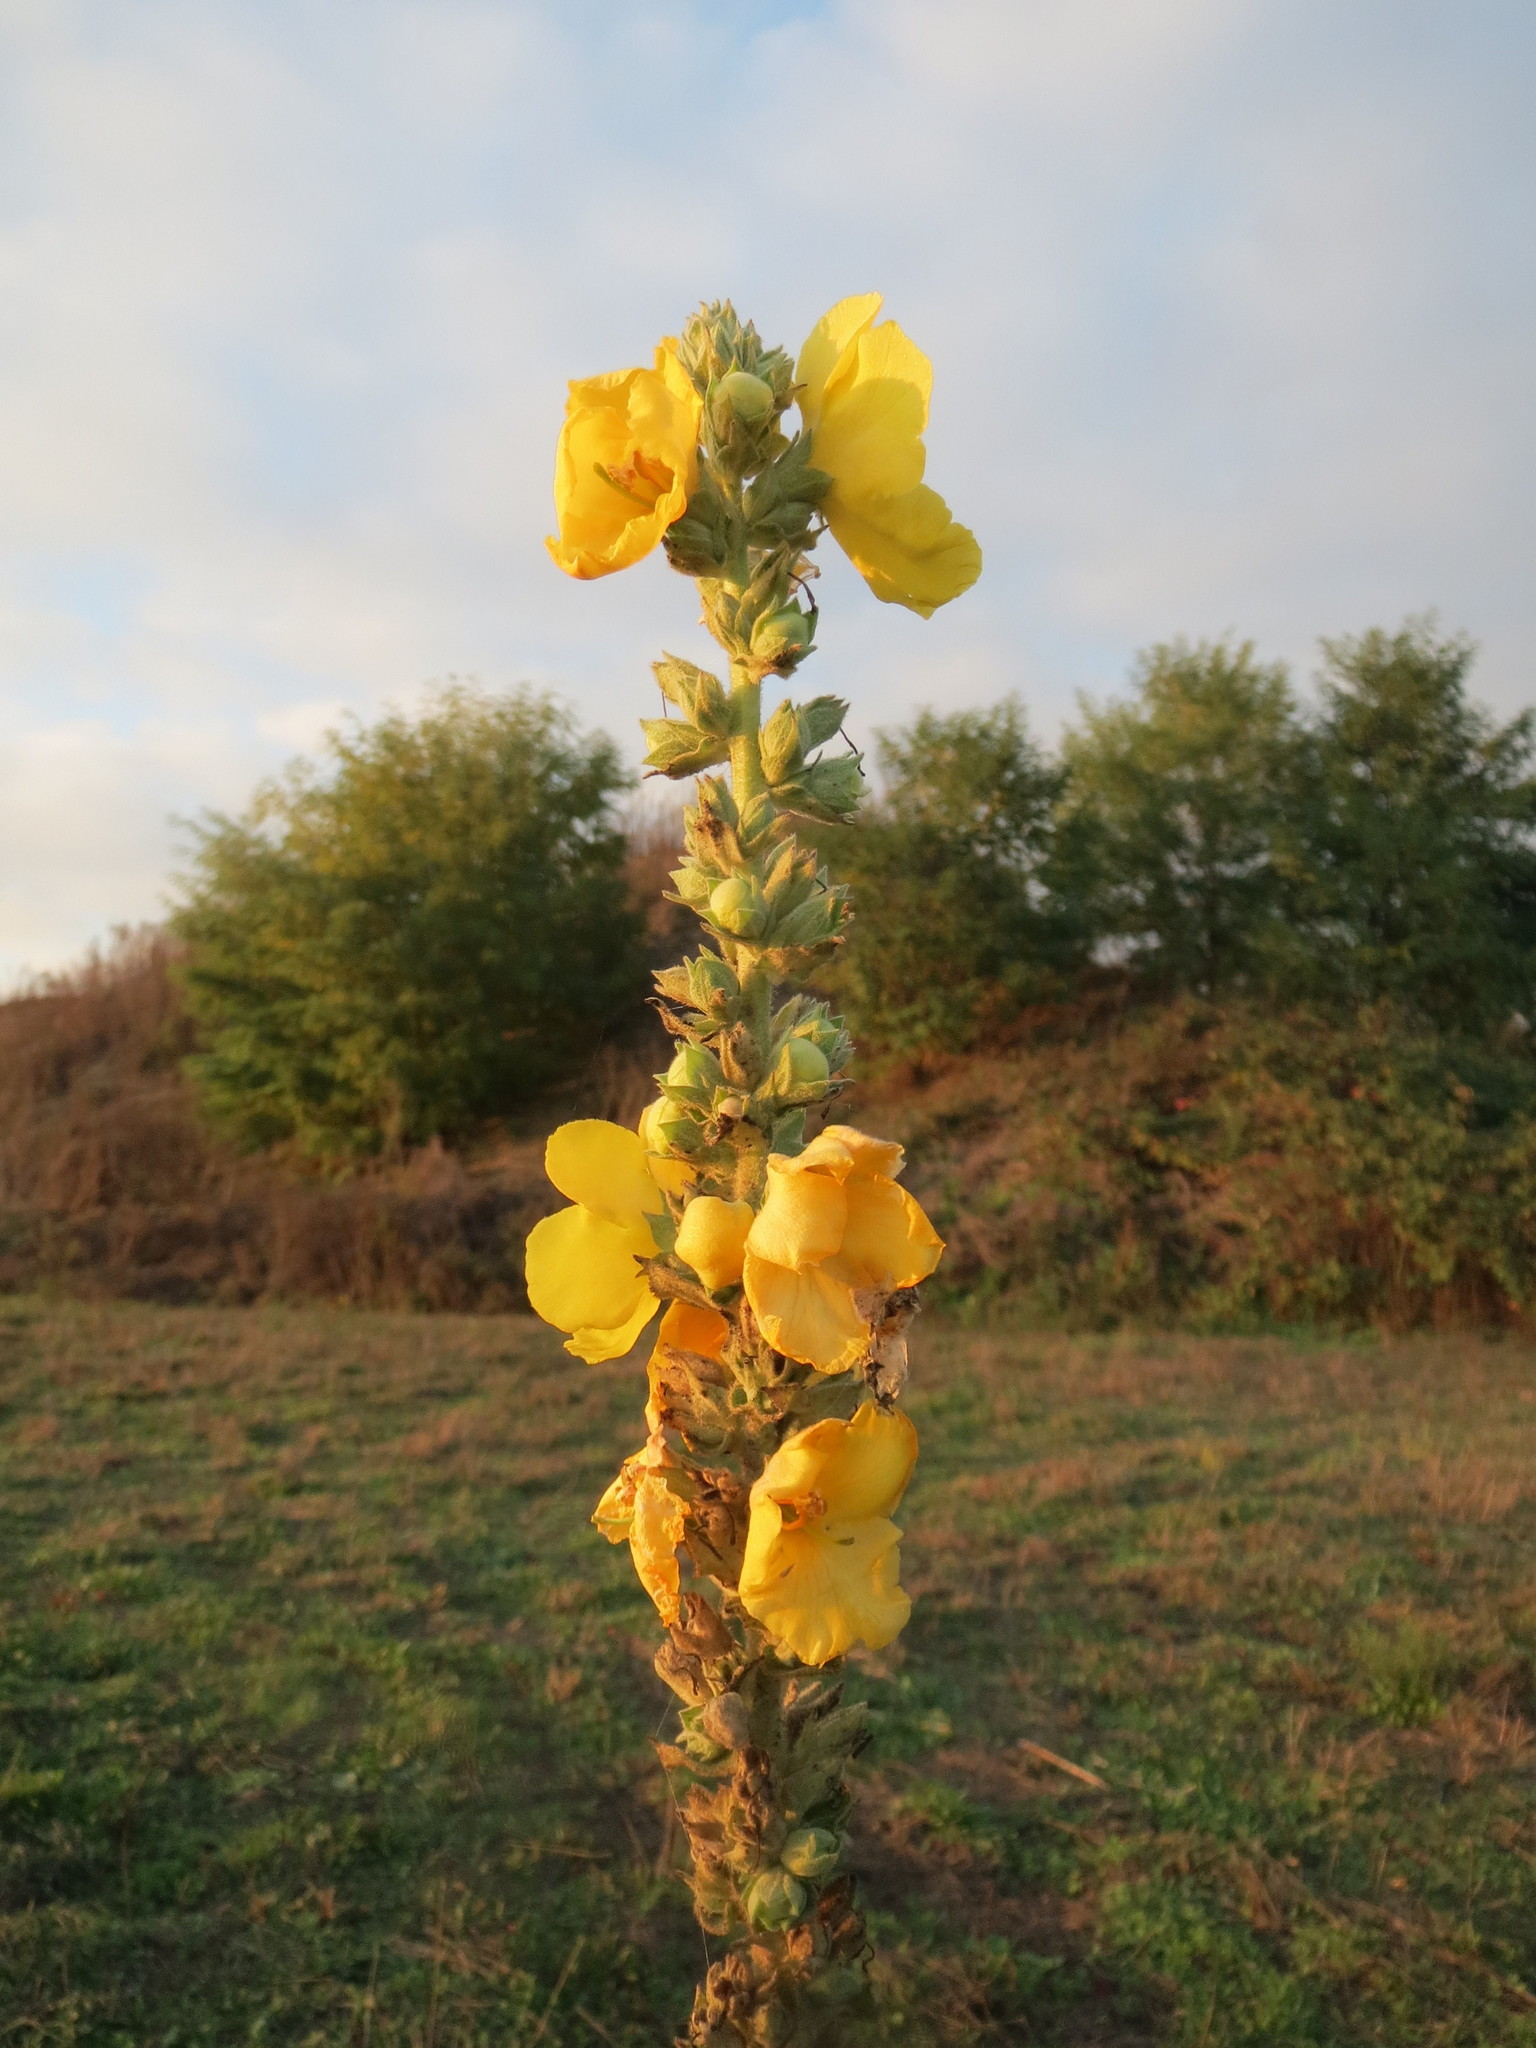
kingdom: Plantae
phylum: Tracheophyta
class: Magnoliopsida
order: Lamiales
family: Scrophulariaceae
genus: Verbascum
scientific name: Verbascum phlomoides
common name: Orange mullein
